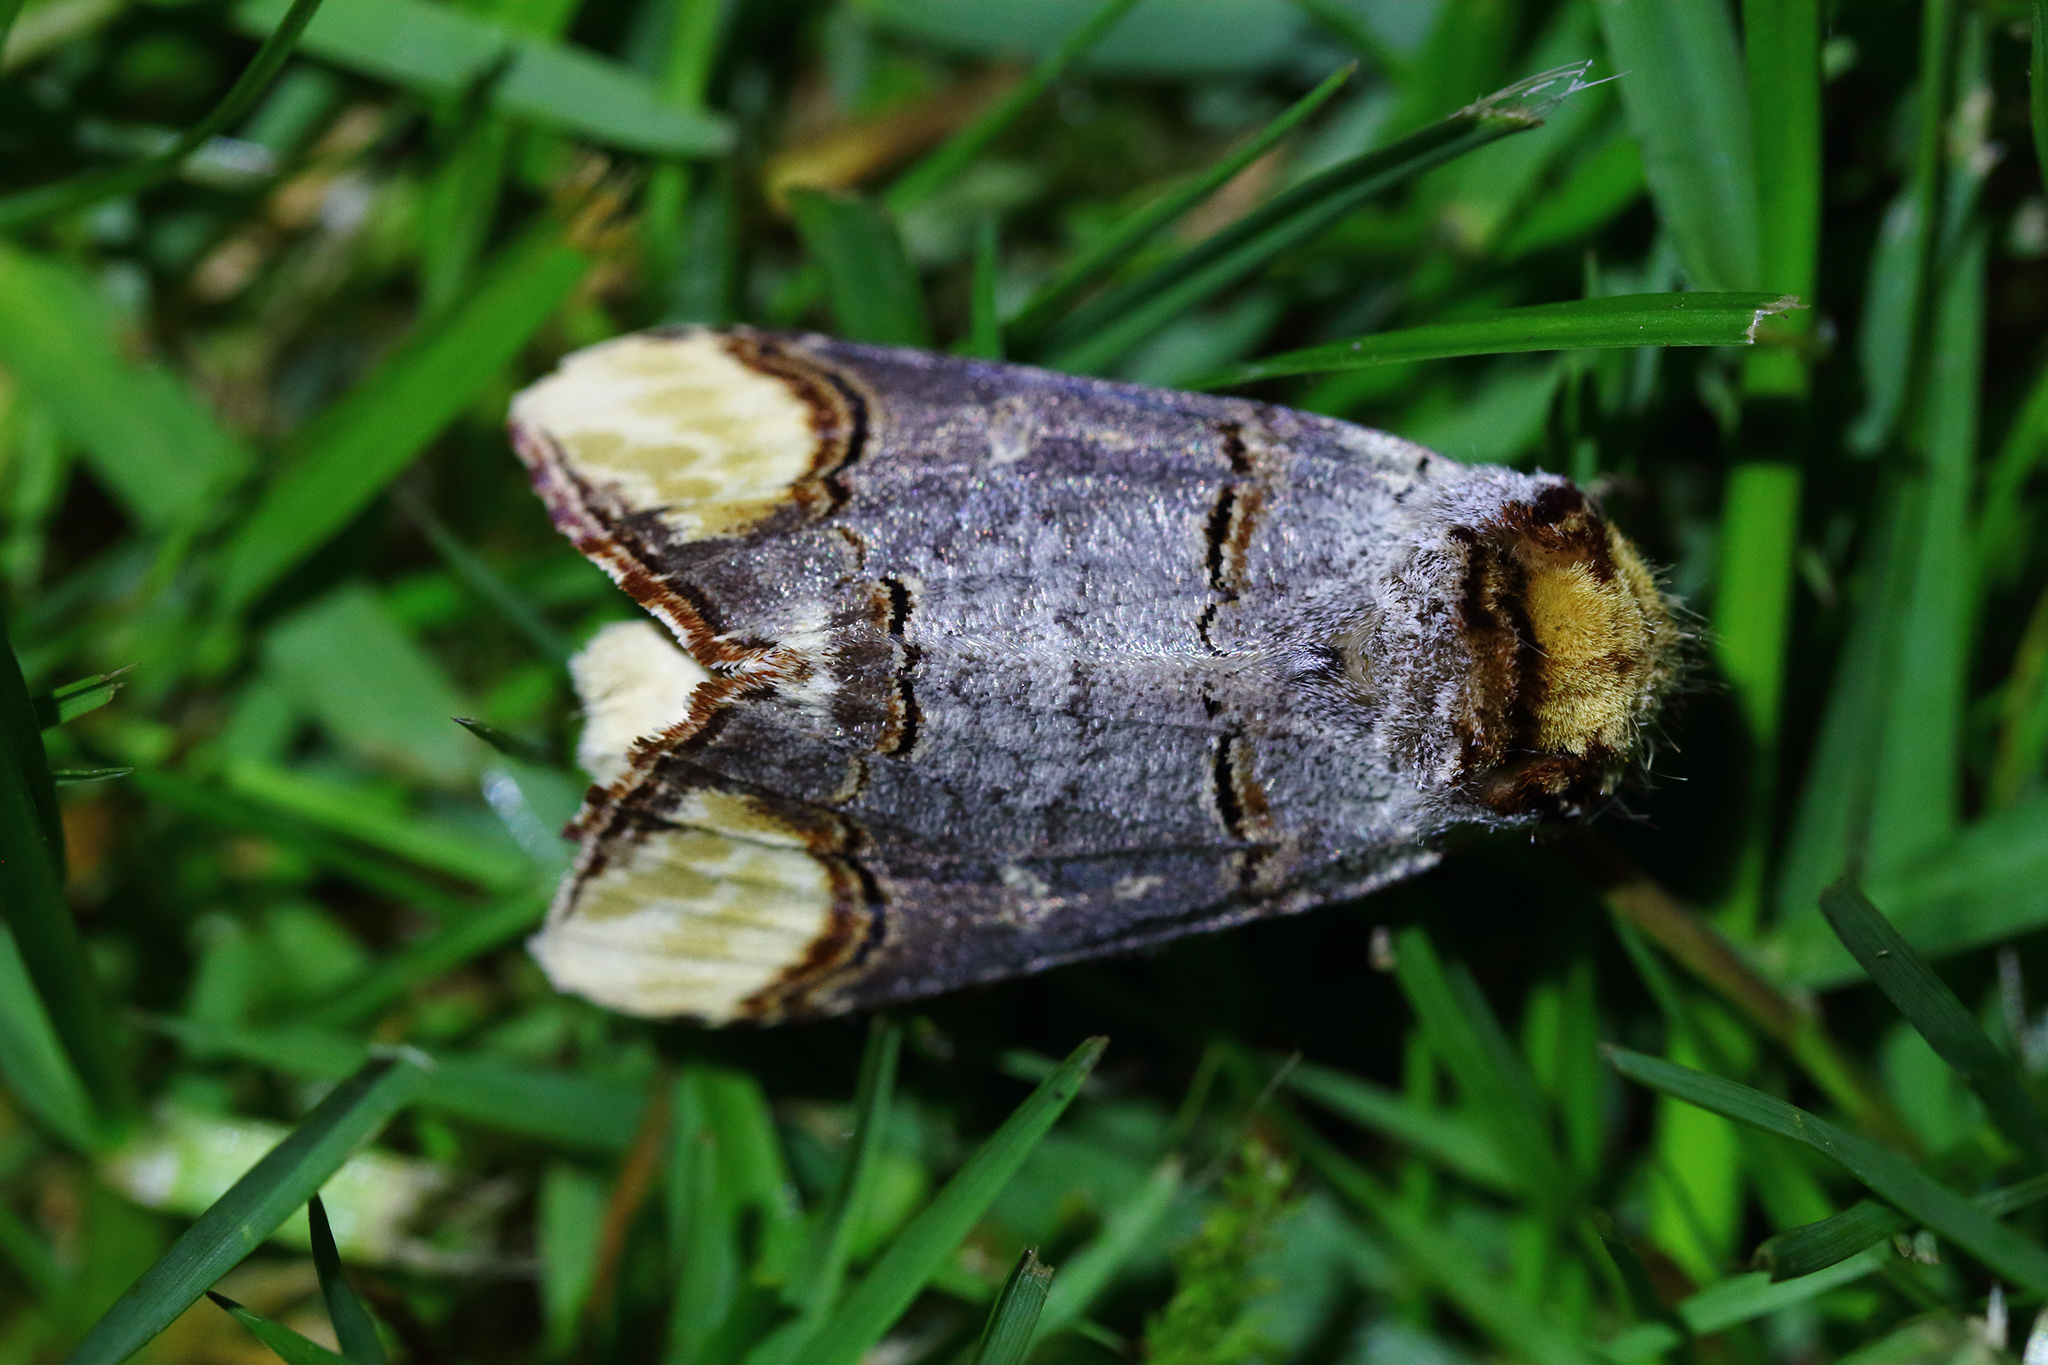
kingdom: Animalia
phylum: Arthropoda
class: Insecta
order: Lepidoptera
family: Notodontidae
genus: Phalera
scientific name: Phalera bucephala
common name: Buff-tip
